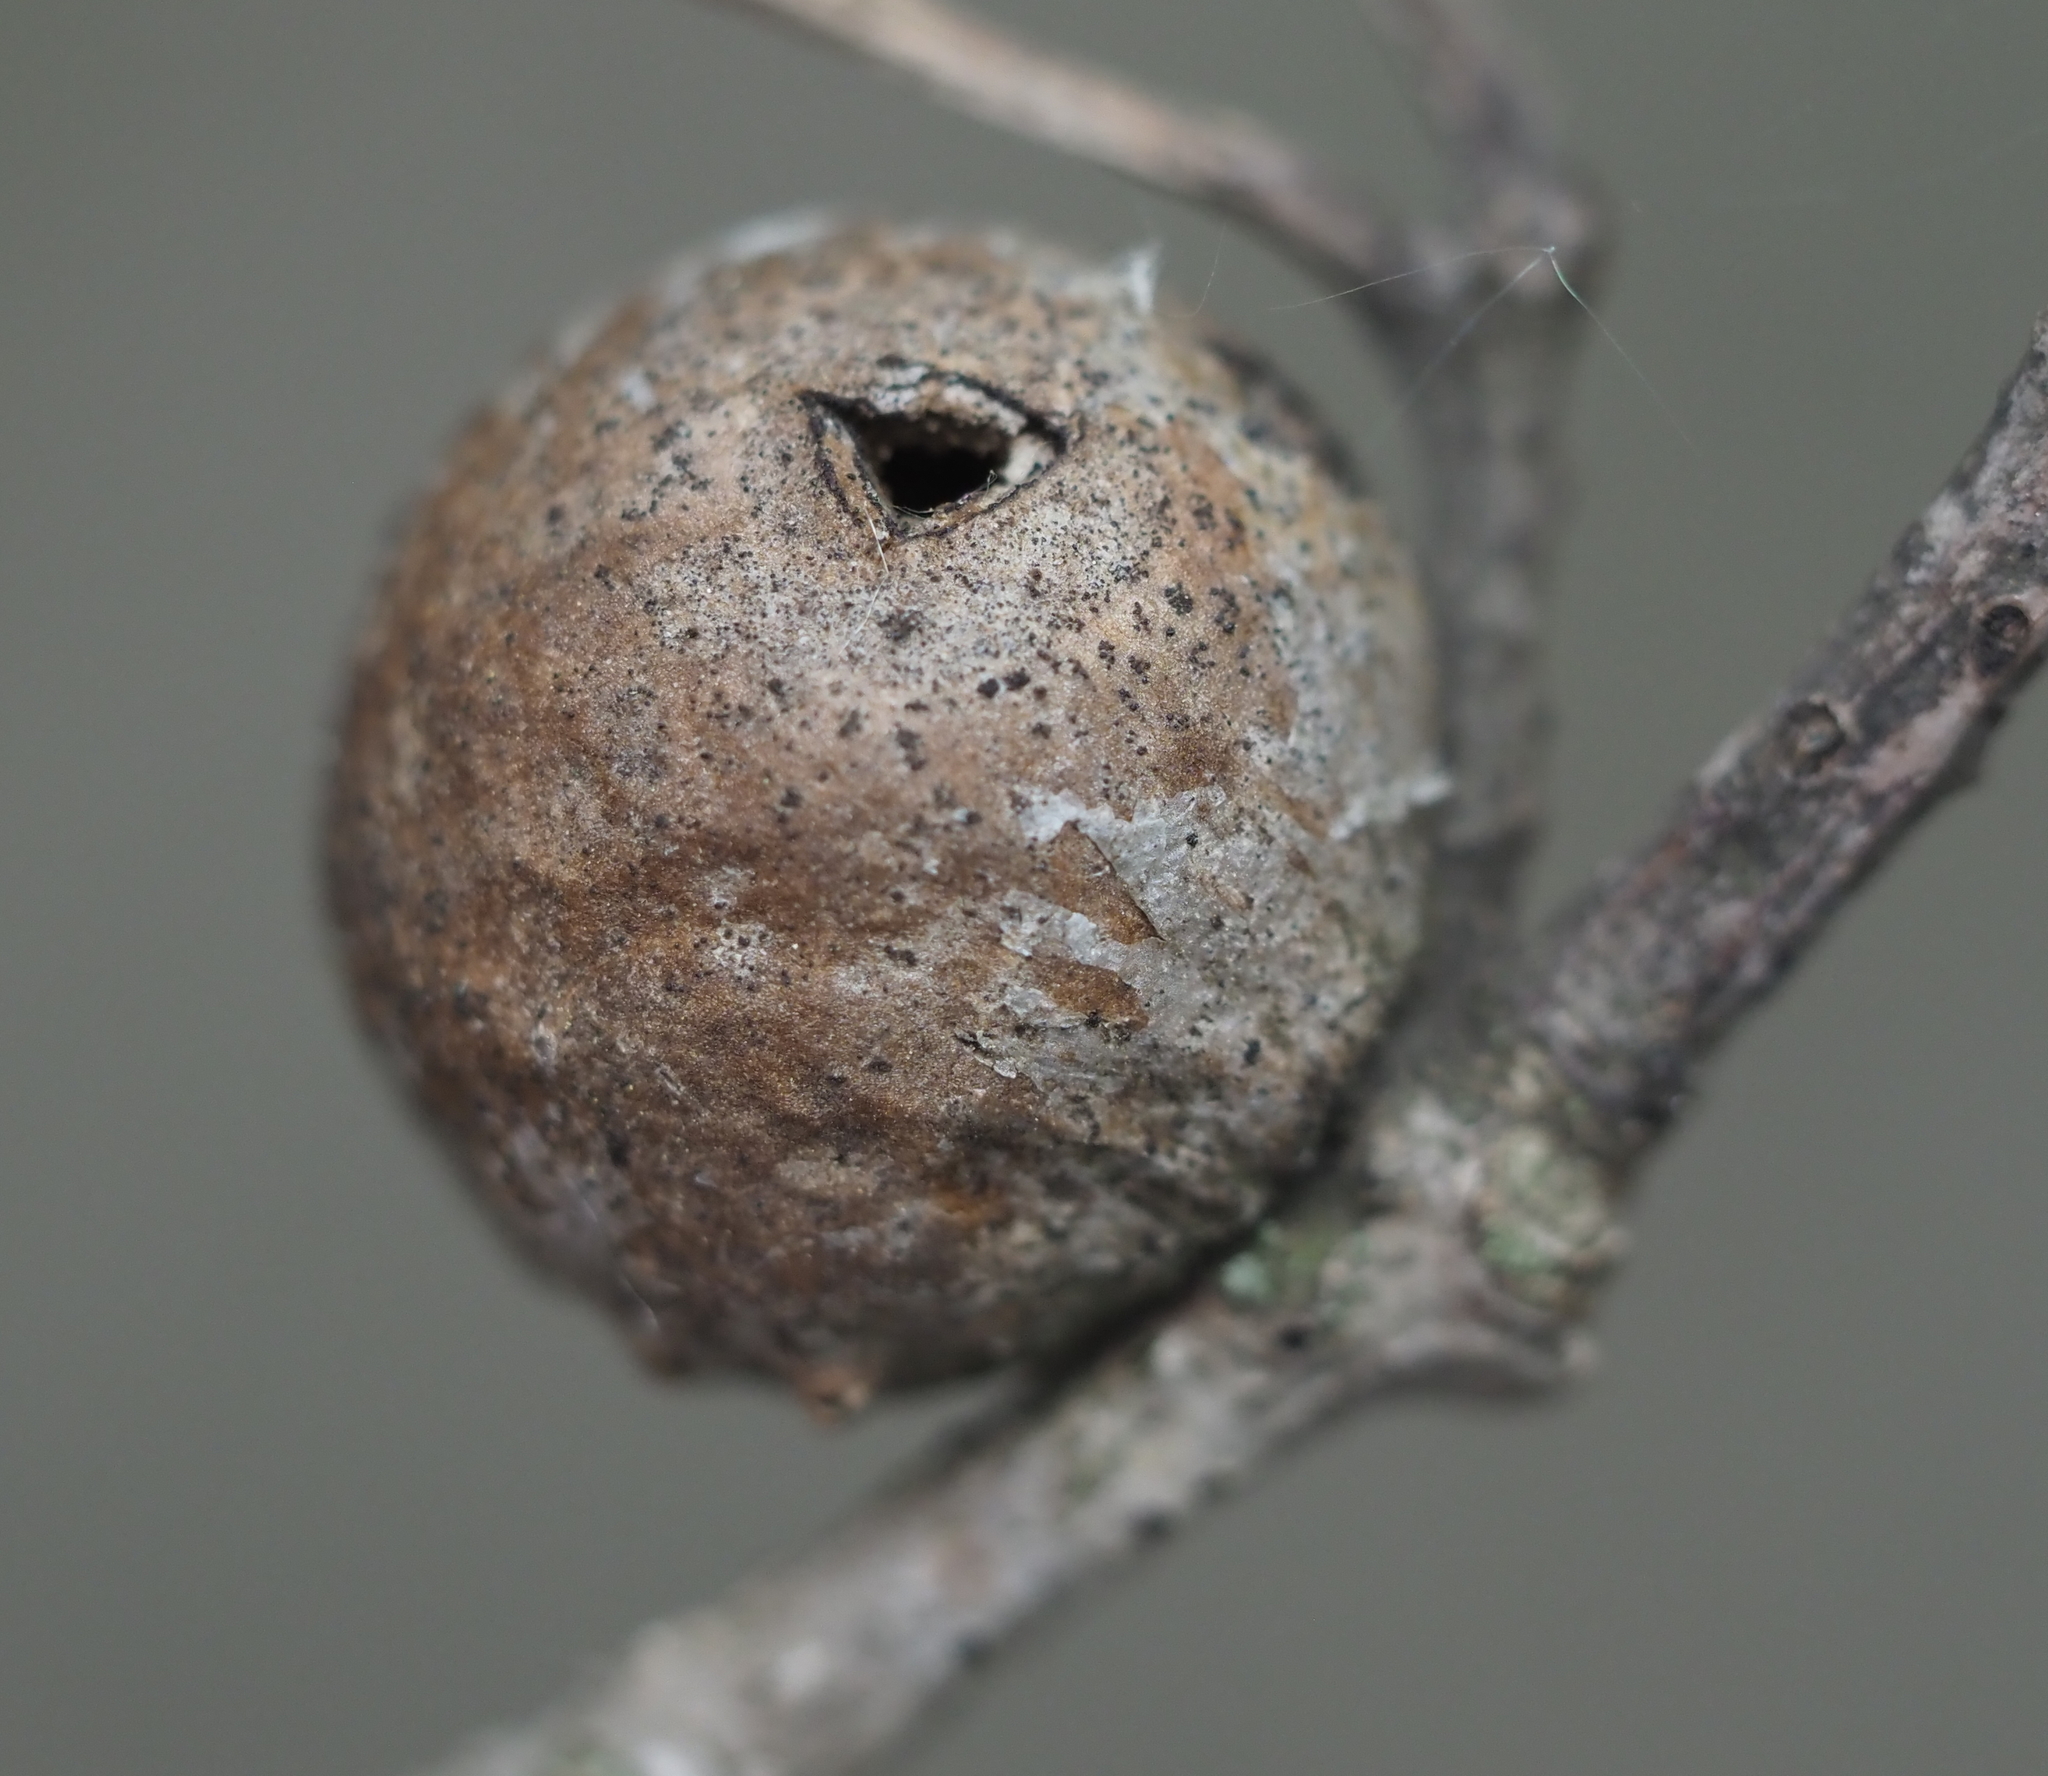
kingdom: Animalia
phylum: Arthropoda
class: Insecta
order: Hymenoptera
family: Cynipidae
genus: Disholcaspis
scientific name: Disholcaspis quercusglobulus
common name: Round bullet gall wasp
